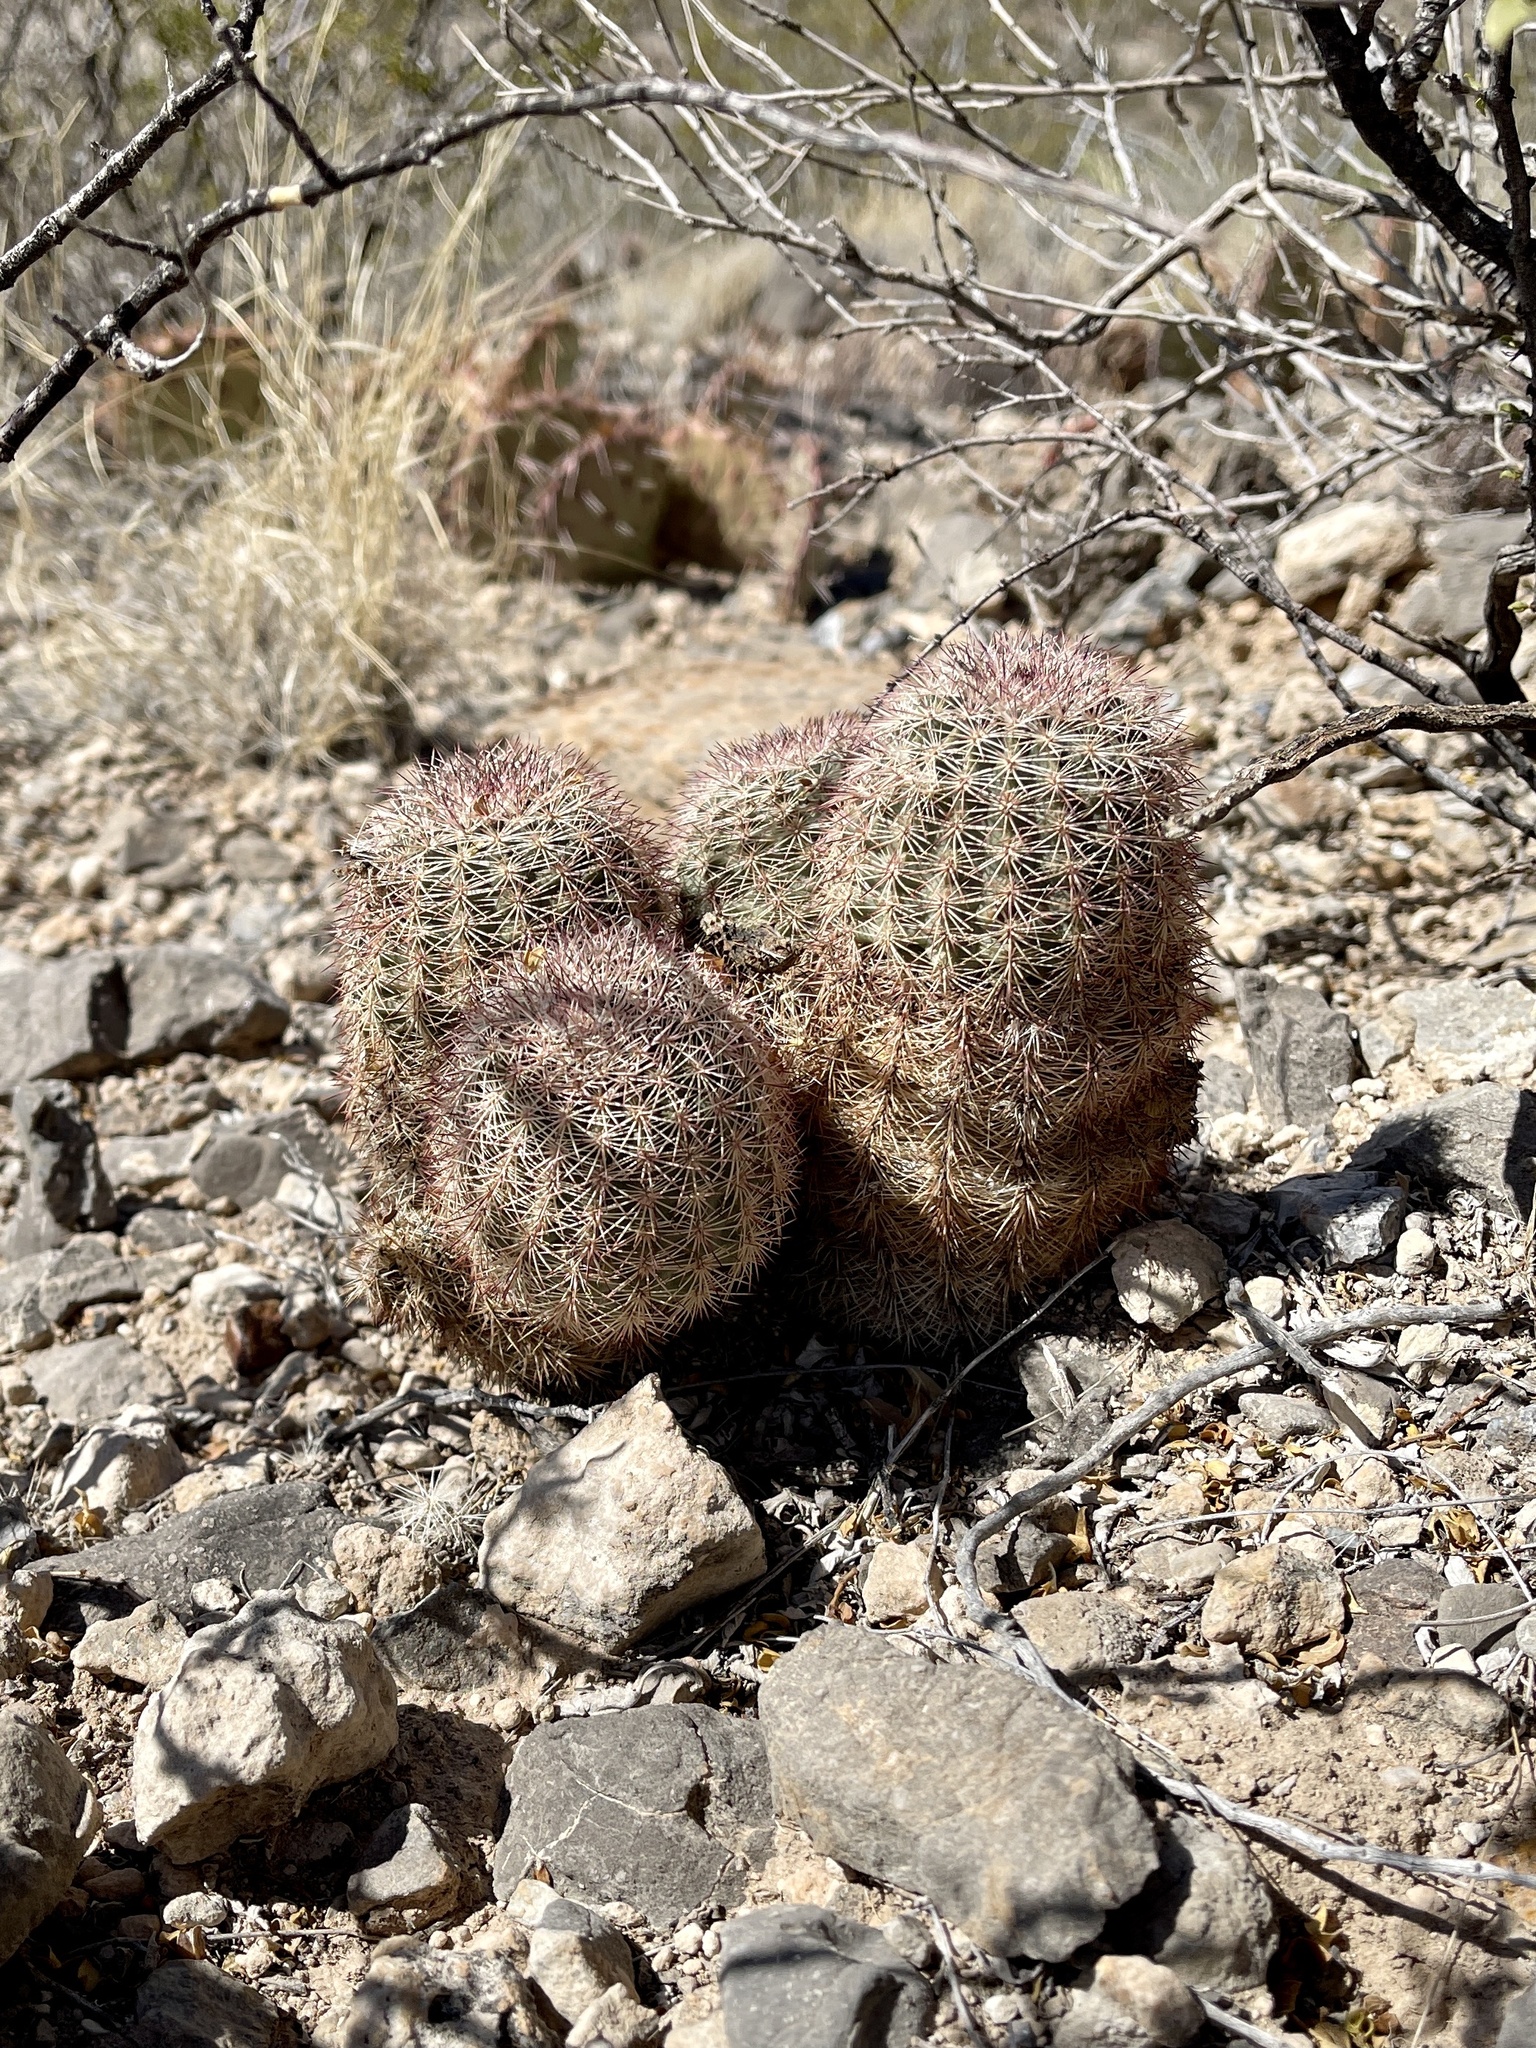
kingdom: Plantae
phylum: Tracheophyta
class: Magnoliopsida
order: Caryophyllales
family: Cactaceae
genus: Echinocereus
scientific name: Echinocereus dasyacanthus
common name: Spiny hedgehog cactus
